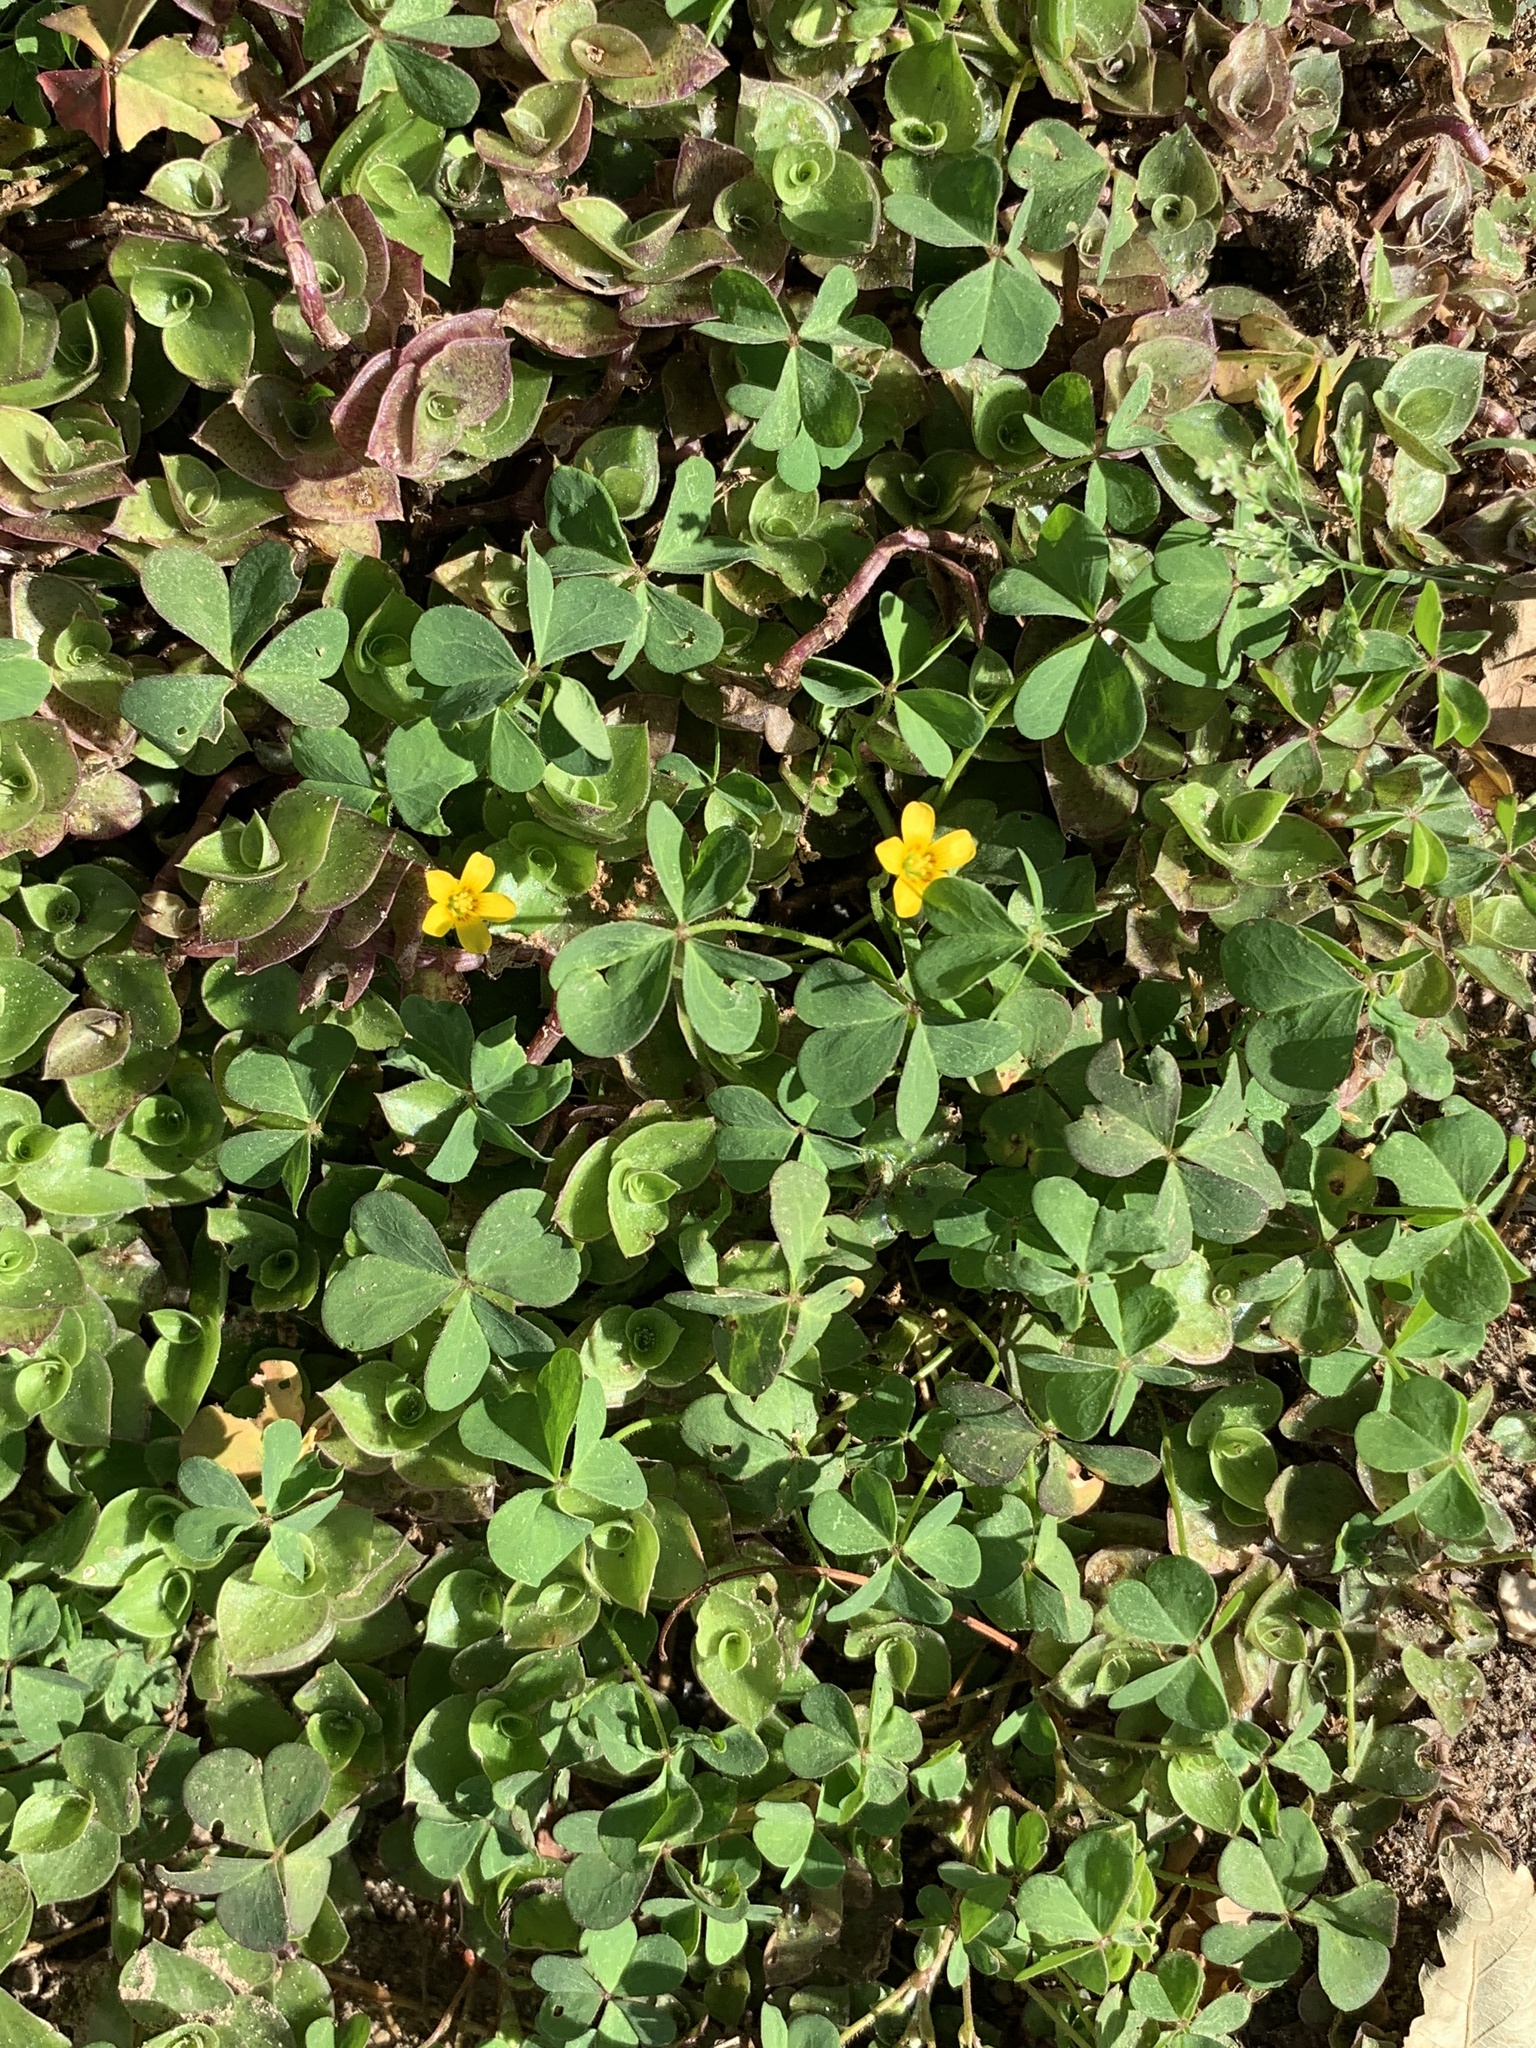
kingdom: Plantae
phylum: Tracheophyta
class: Magnoliopsida
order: Oxalidales
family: Oxalidaceae
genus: Oxalis
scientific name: Oxalis corniculata
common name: Procumbent yellow-sorrel
